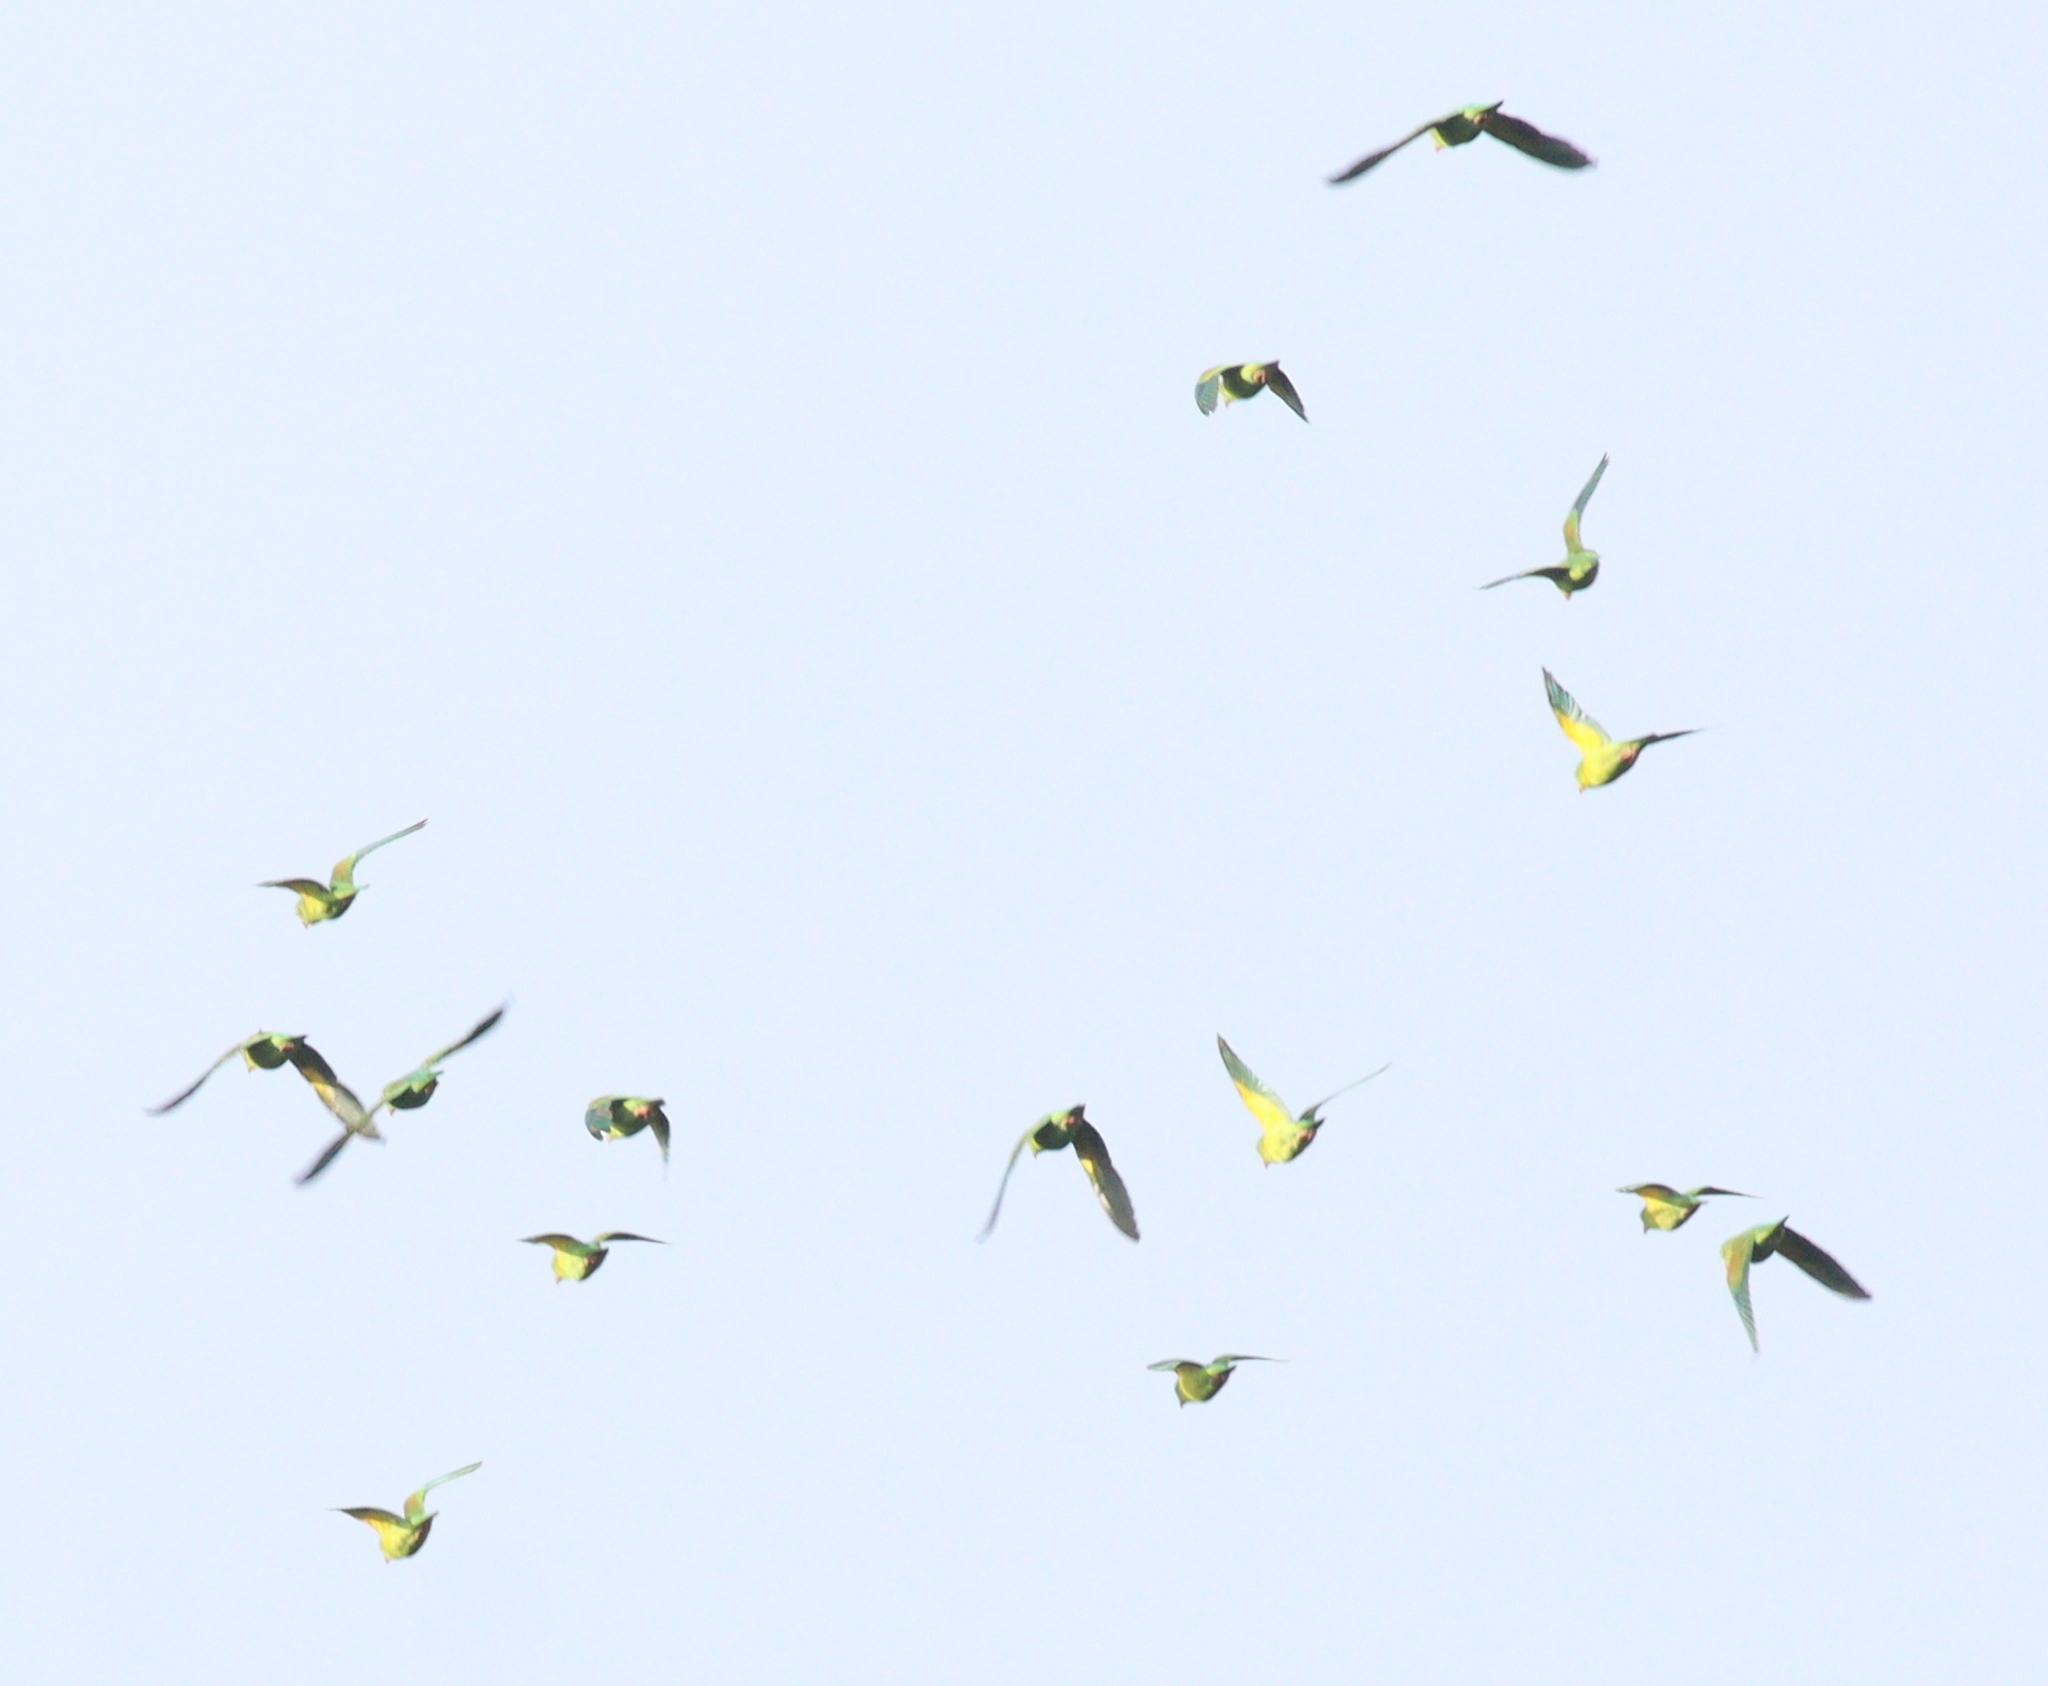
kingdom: Animalia
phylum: Chordata
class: Aves
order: Psittaciformes
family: Psittacidae
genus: Brotogeris
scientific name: Brotogeris jugularis
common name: Orange-chinned parakeet
